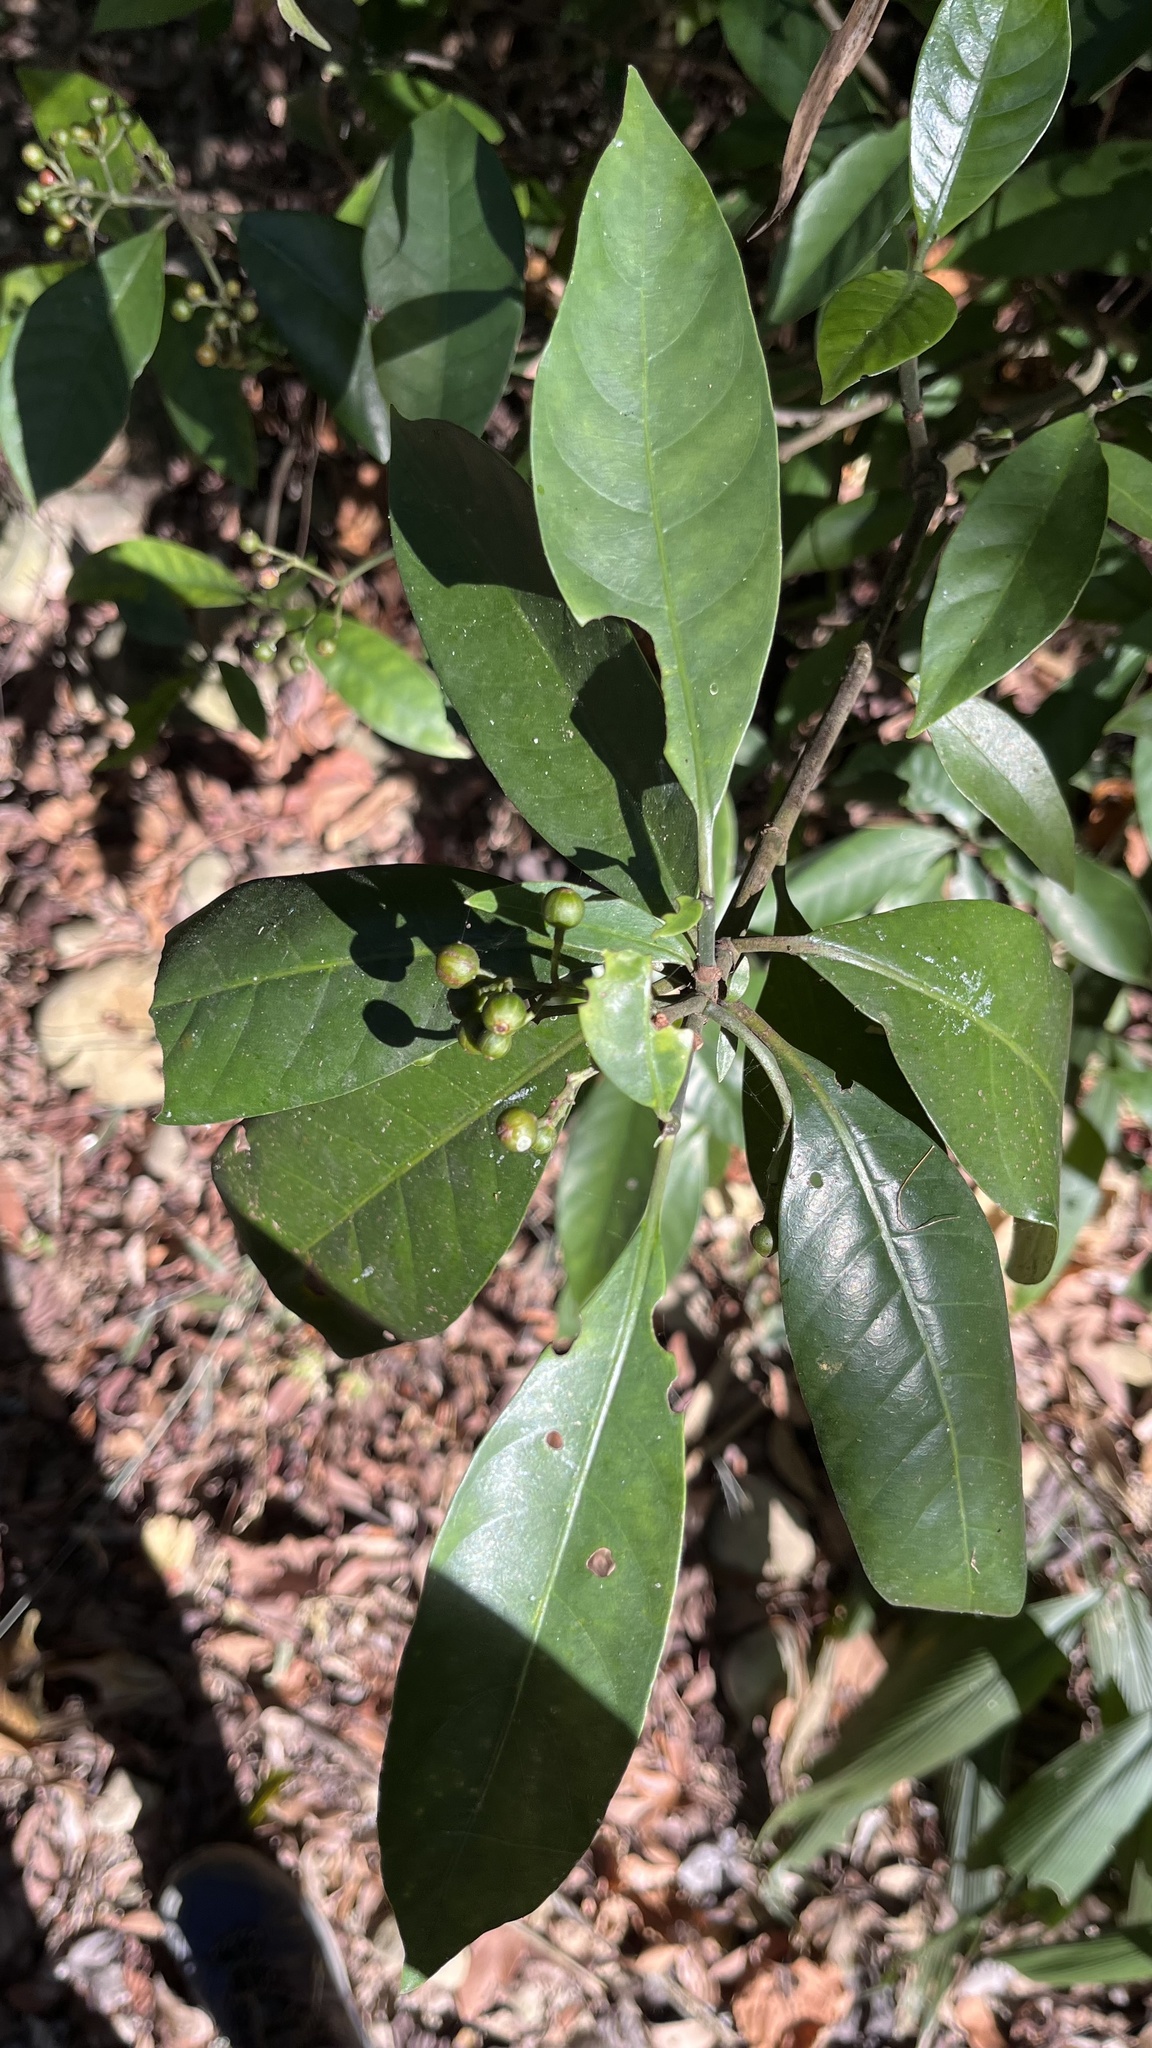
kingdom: Plantae
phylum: Tracheophyta
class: Magnoliopsida
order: Gentianales
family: Rubiaceae
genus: Psychotria
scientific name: Psychotria asiatica
